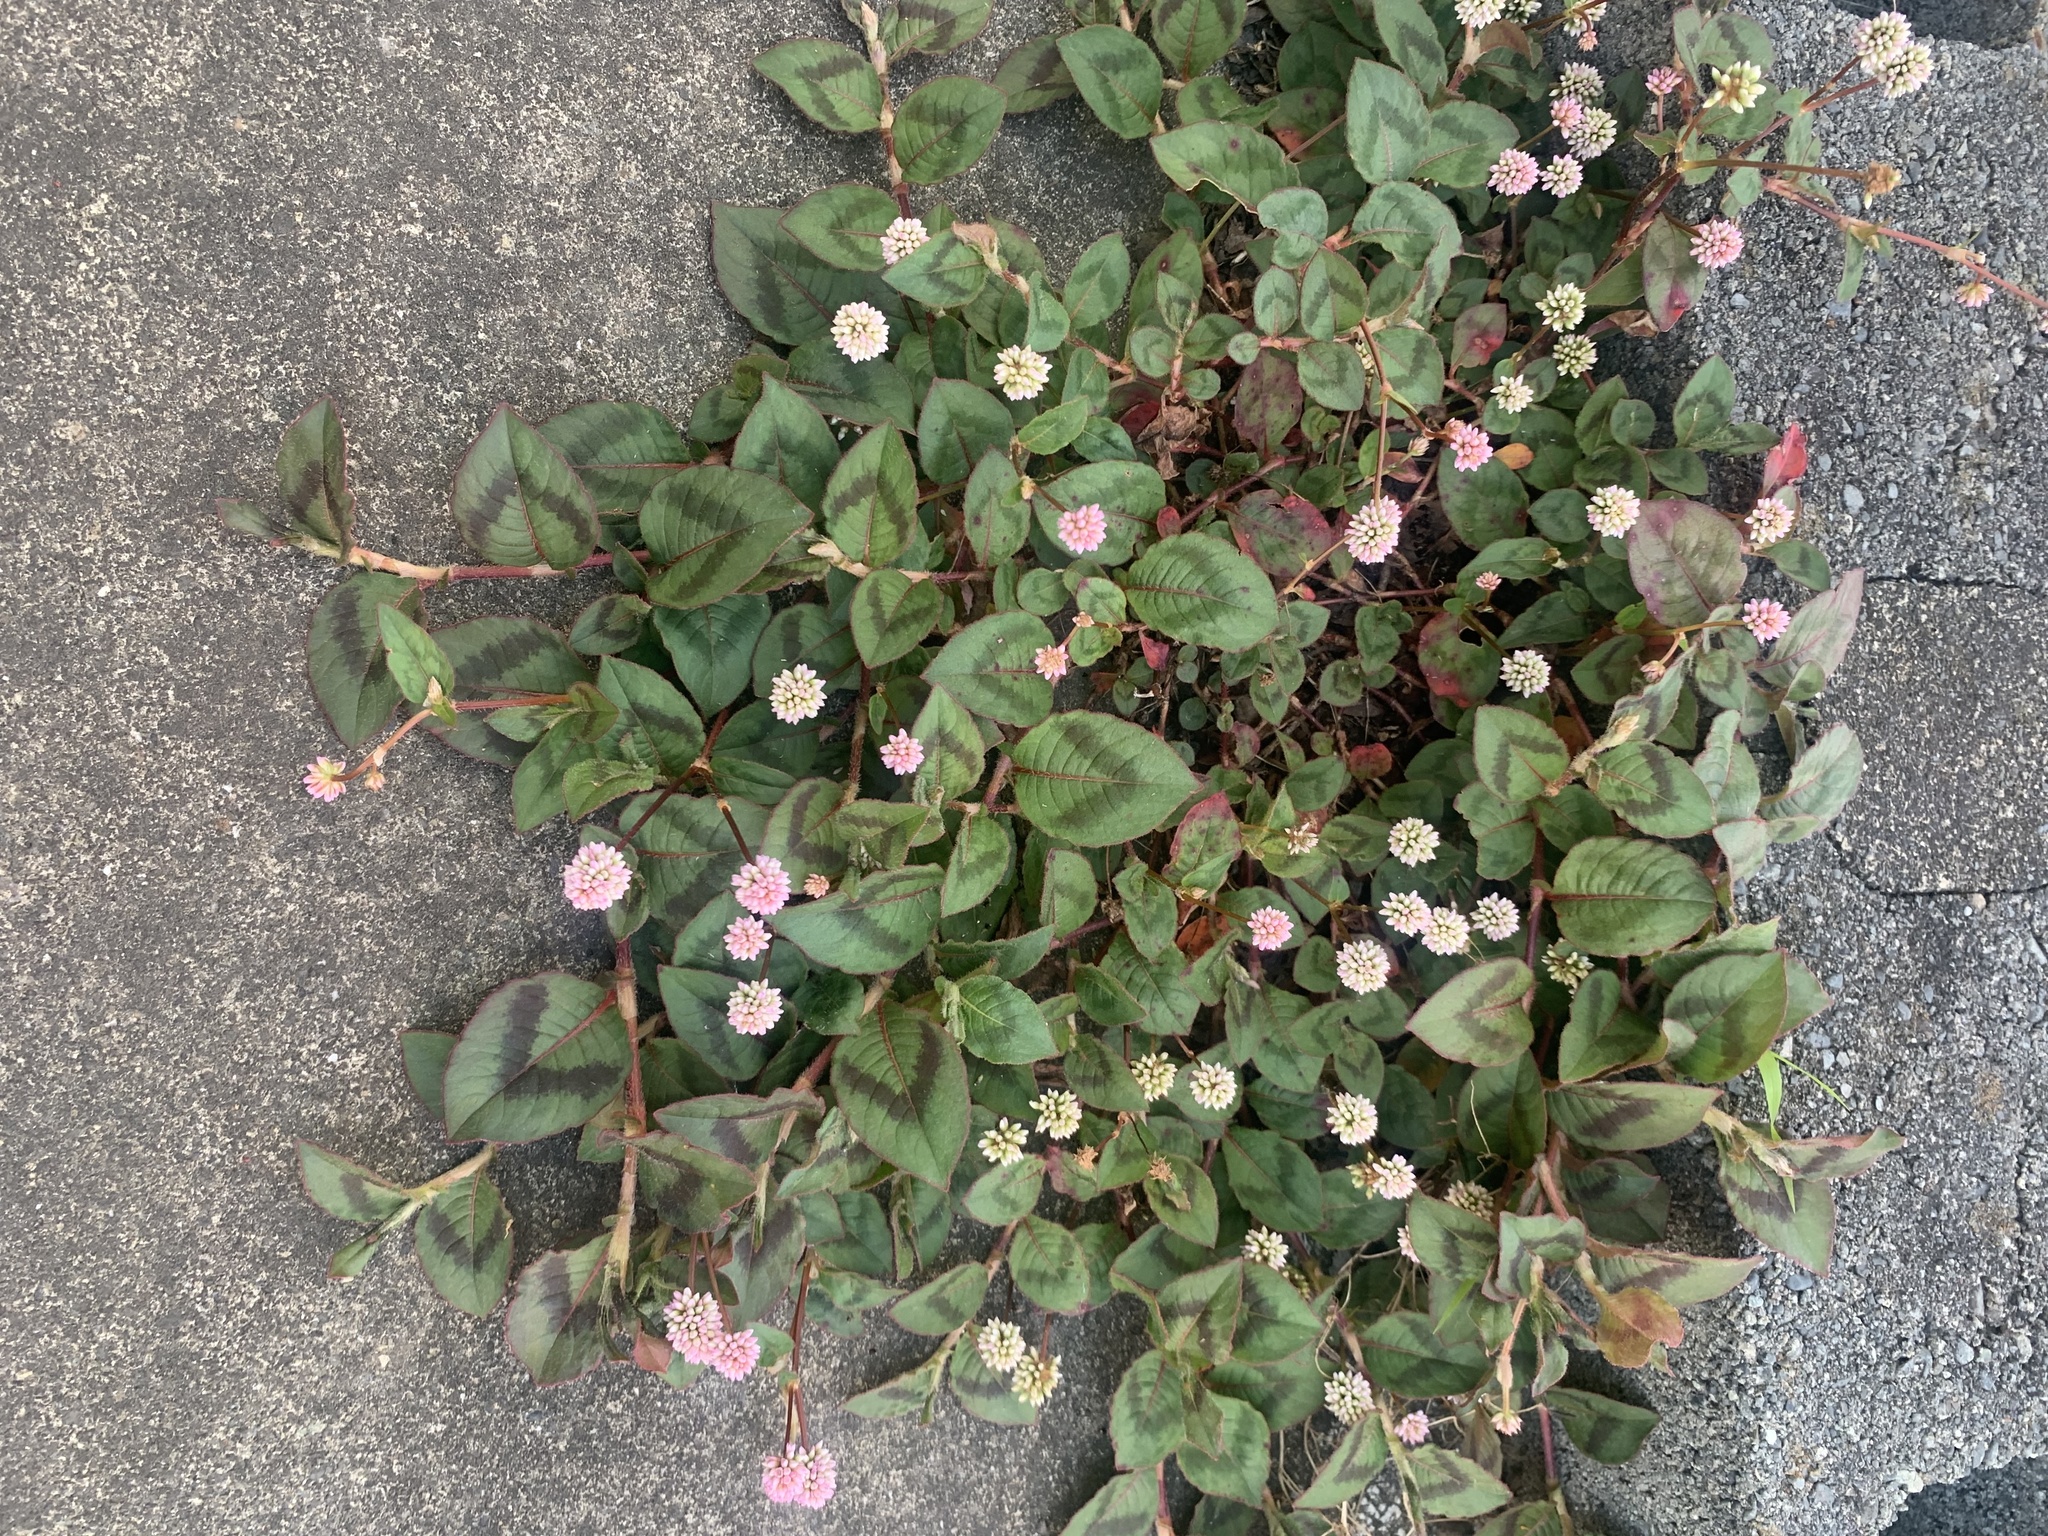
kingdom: Plantae
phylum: Tracheophyta
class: Magnoliopsida
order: Caryophyllales
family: Polygonaceae
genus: Persicaria
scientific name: Persicaria capitata
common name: Pinkhead smartweed
